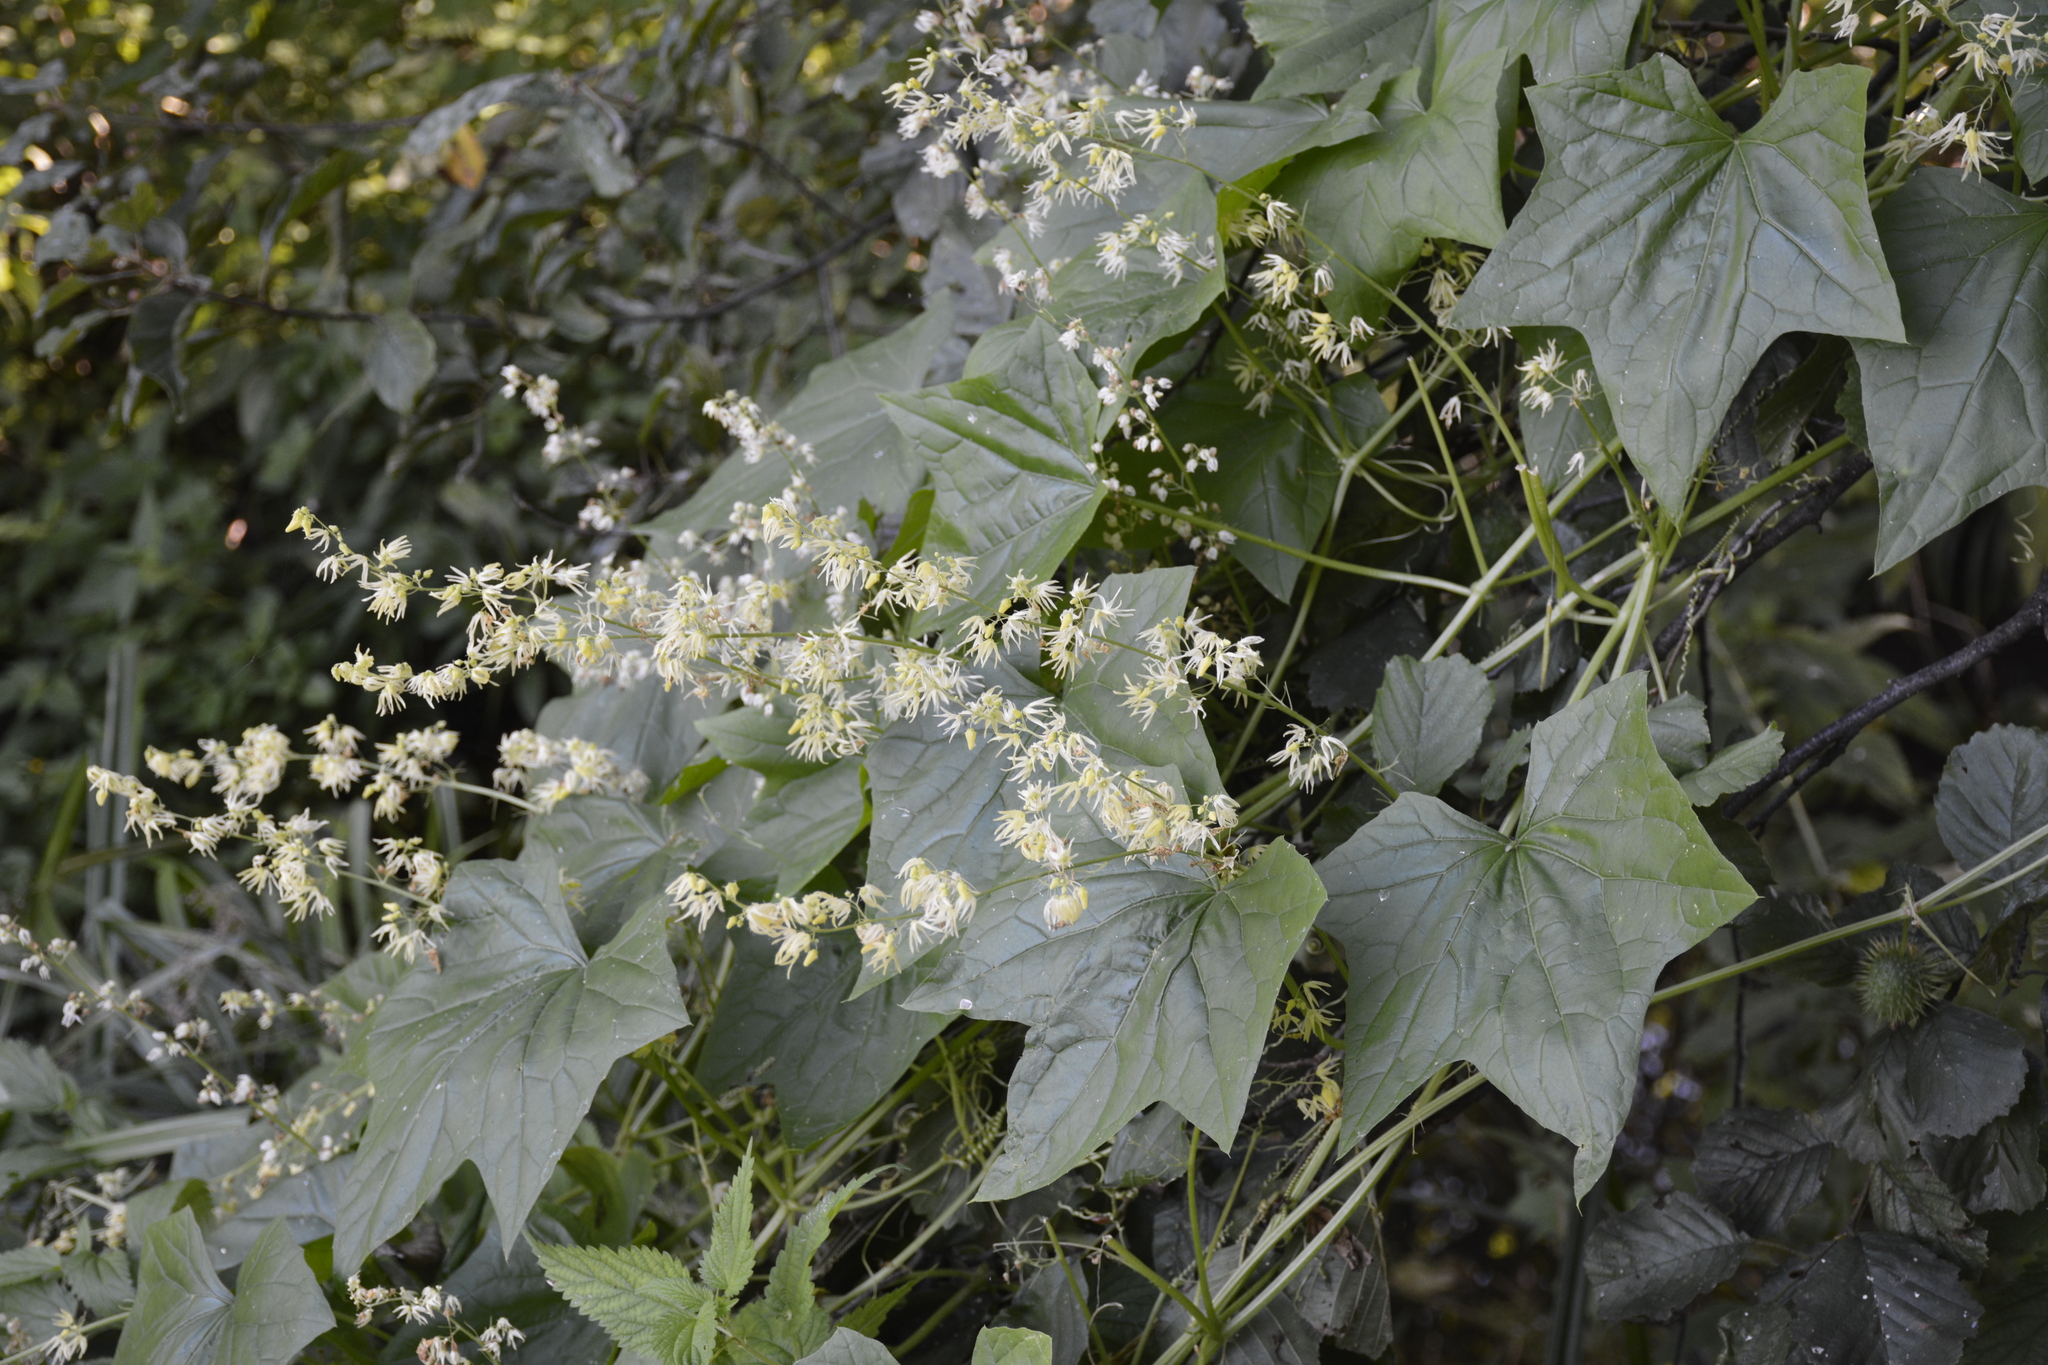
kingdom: Plantae
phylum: Tracheophyta
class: Magnoliopsida
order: Cucurbitales
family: Cucurbitaceae
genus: Echinocystis
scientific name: Echinocystis lobata
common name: Wild cucumber
